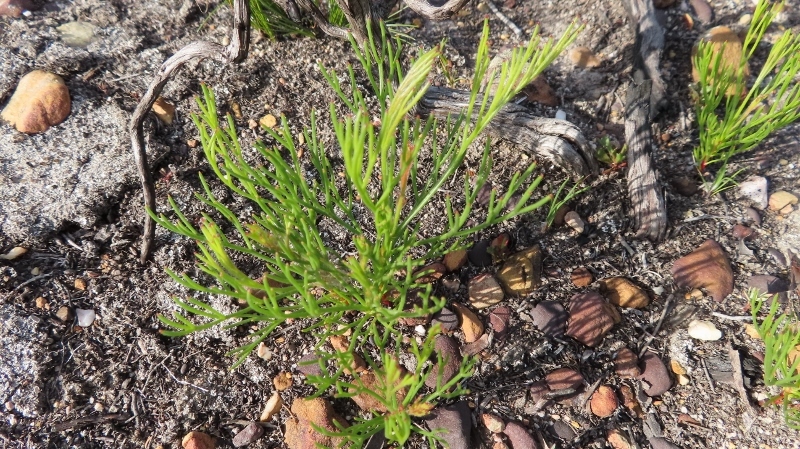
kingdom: Plantae
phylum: Tracheophyta
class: Magnoliopsida
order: Proteales
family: Proteaceae
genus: Serruria
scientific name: Serruria elongata
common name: Long-stalk spiderhead
